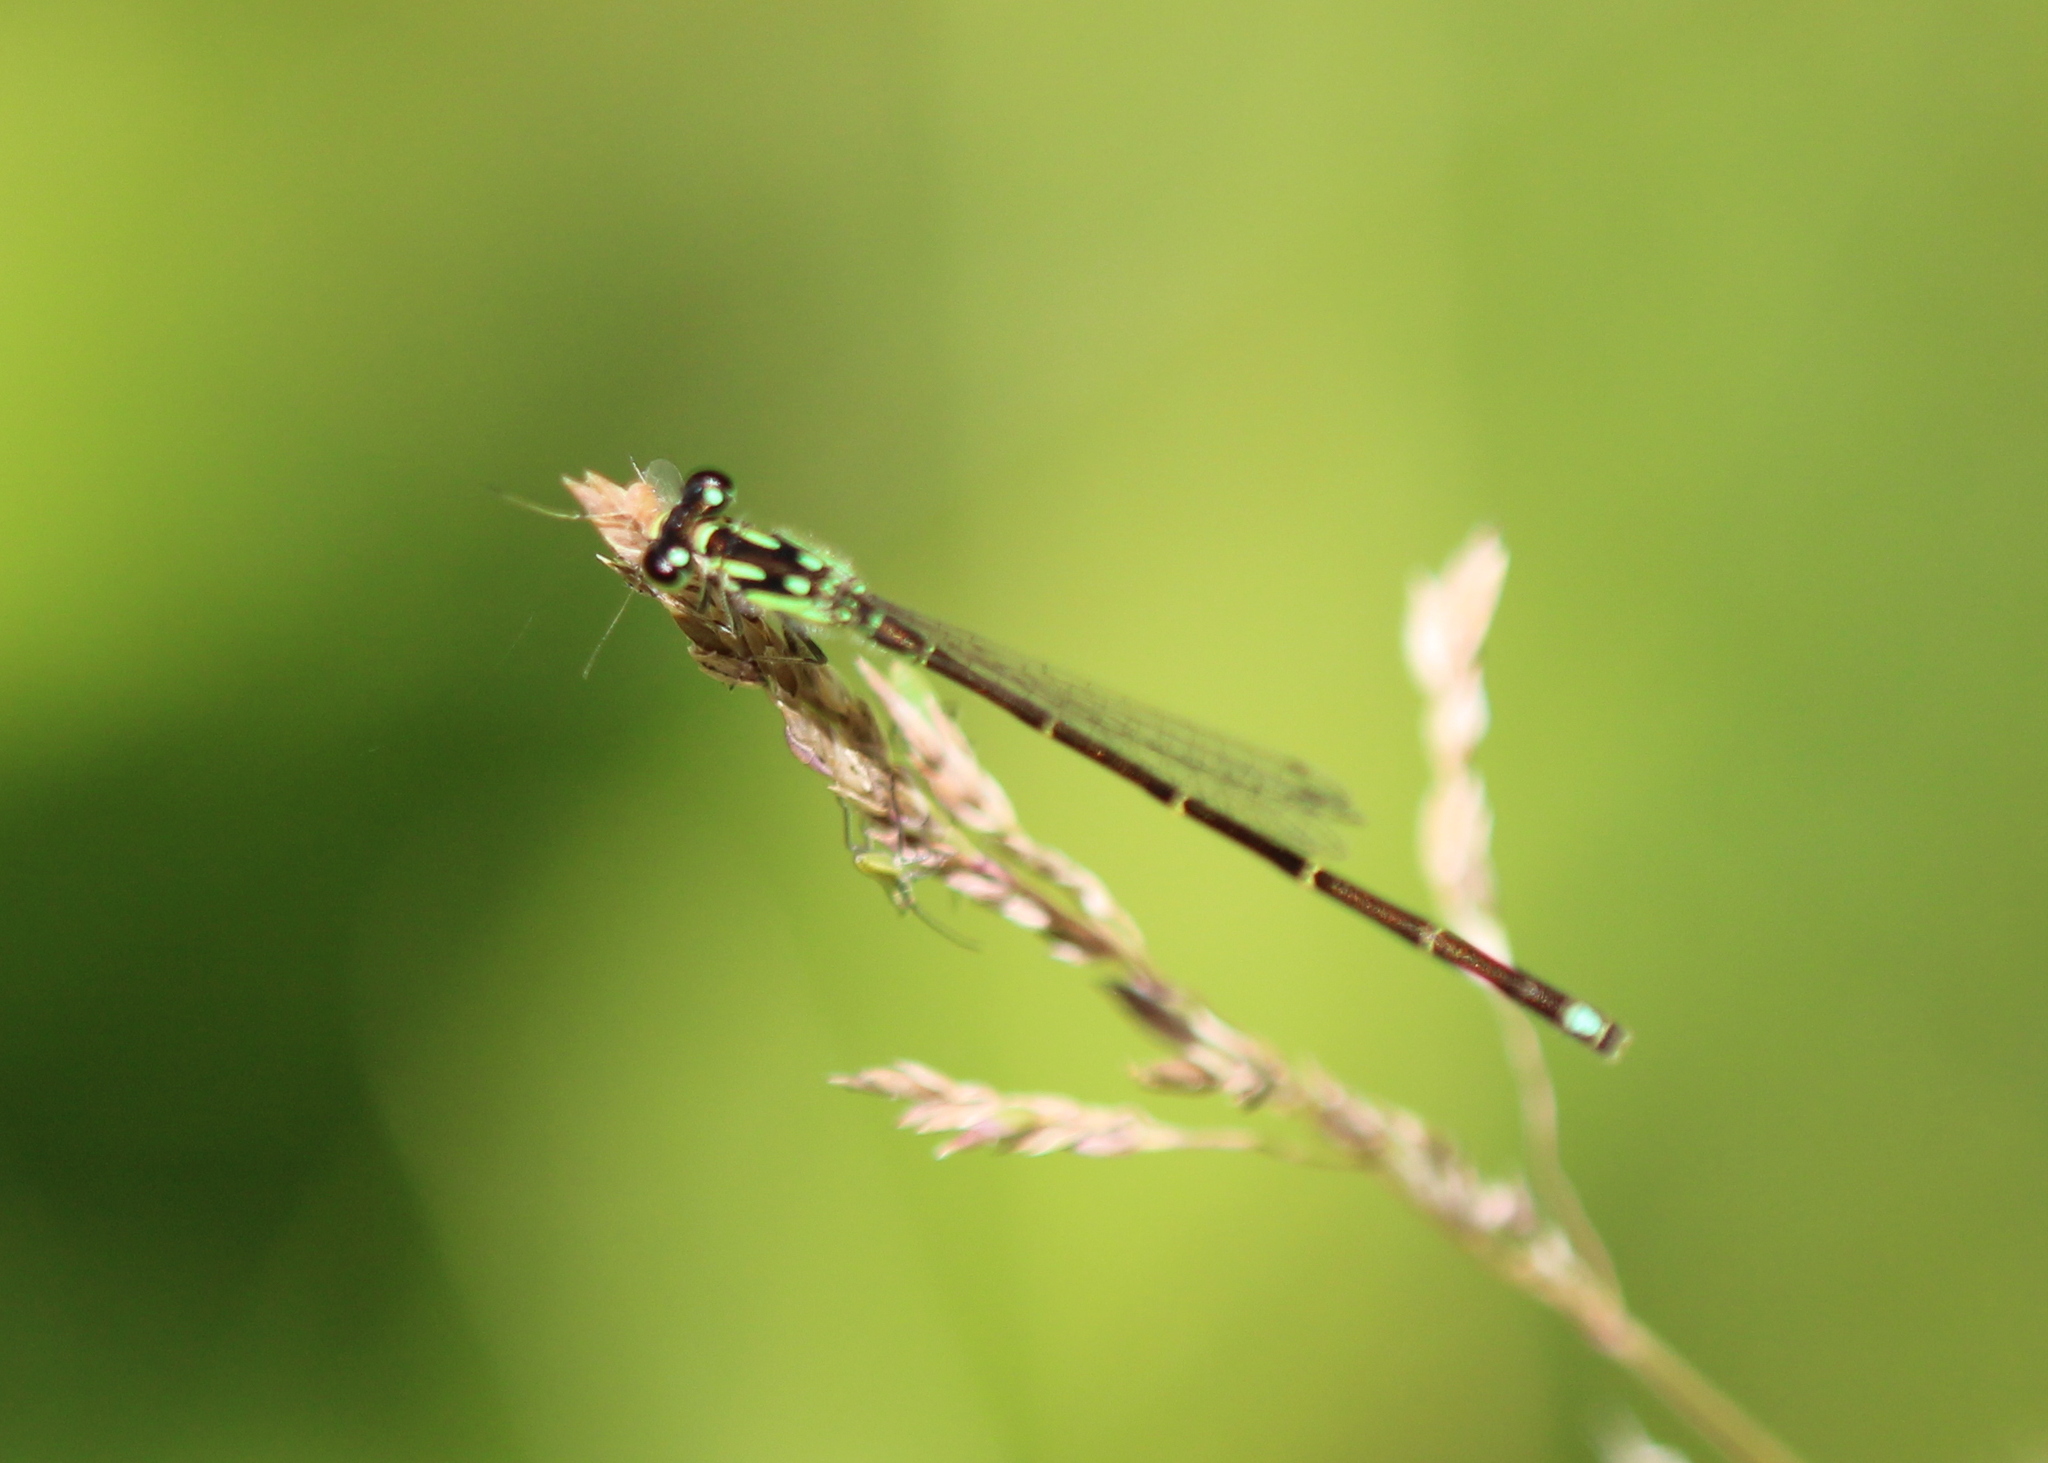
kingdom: Animalia
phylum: Arthropoda
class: Insecta
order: Odonata
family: Coenagrionidae
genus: Ischnura
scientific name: Ischnura posita
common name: Fragile forktail
